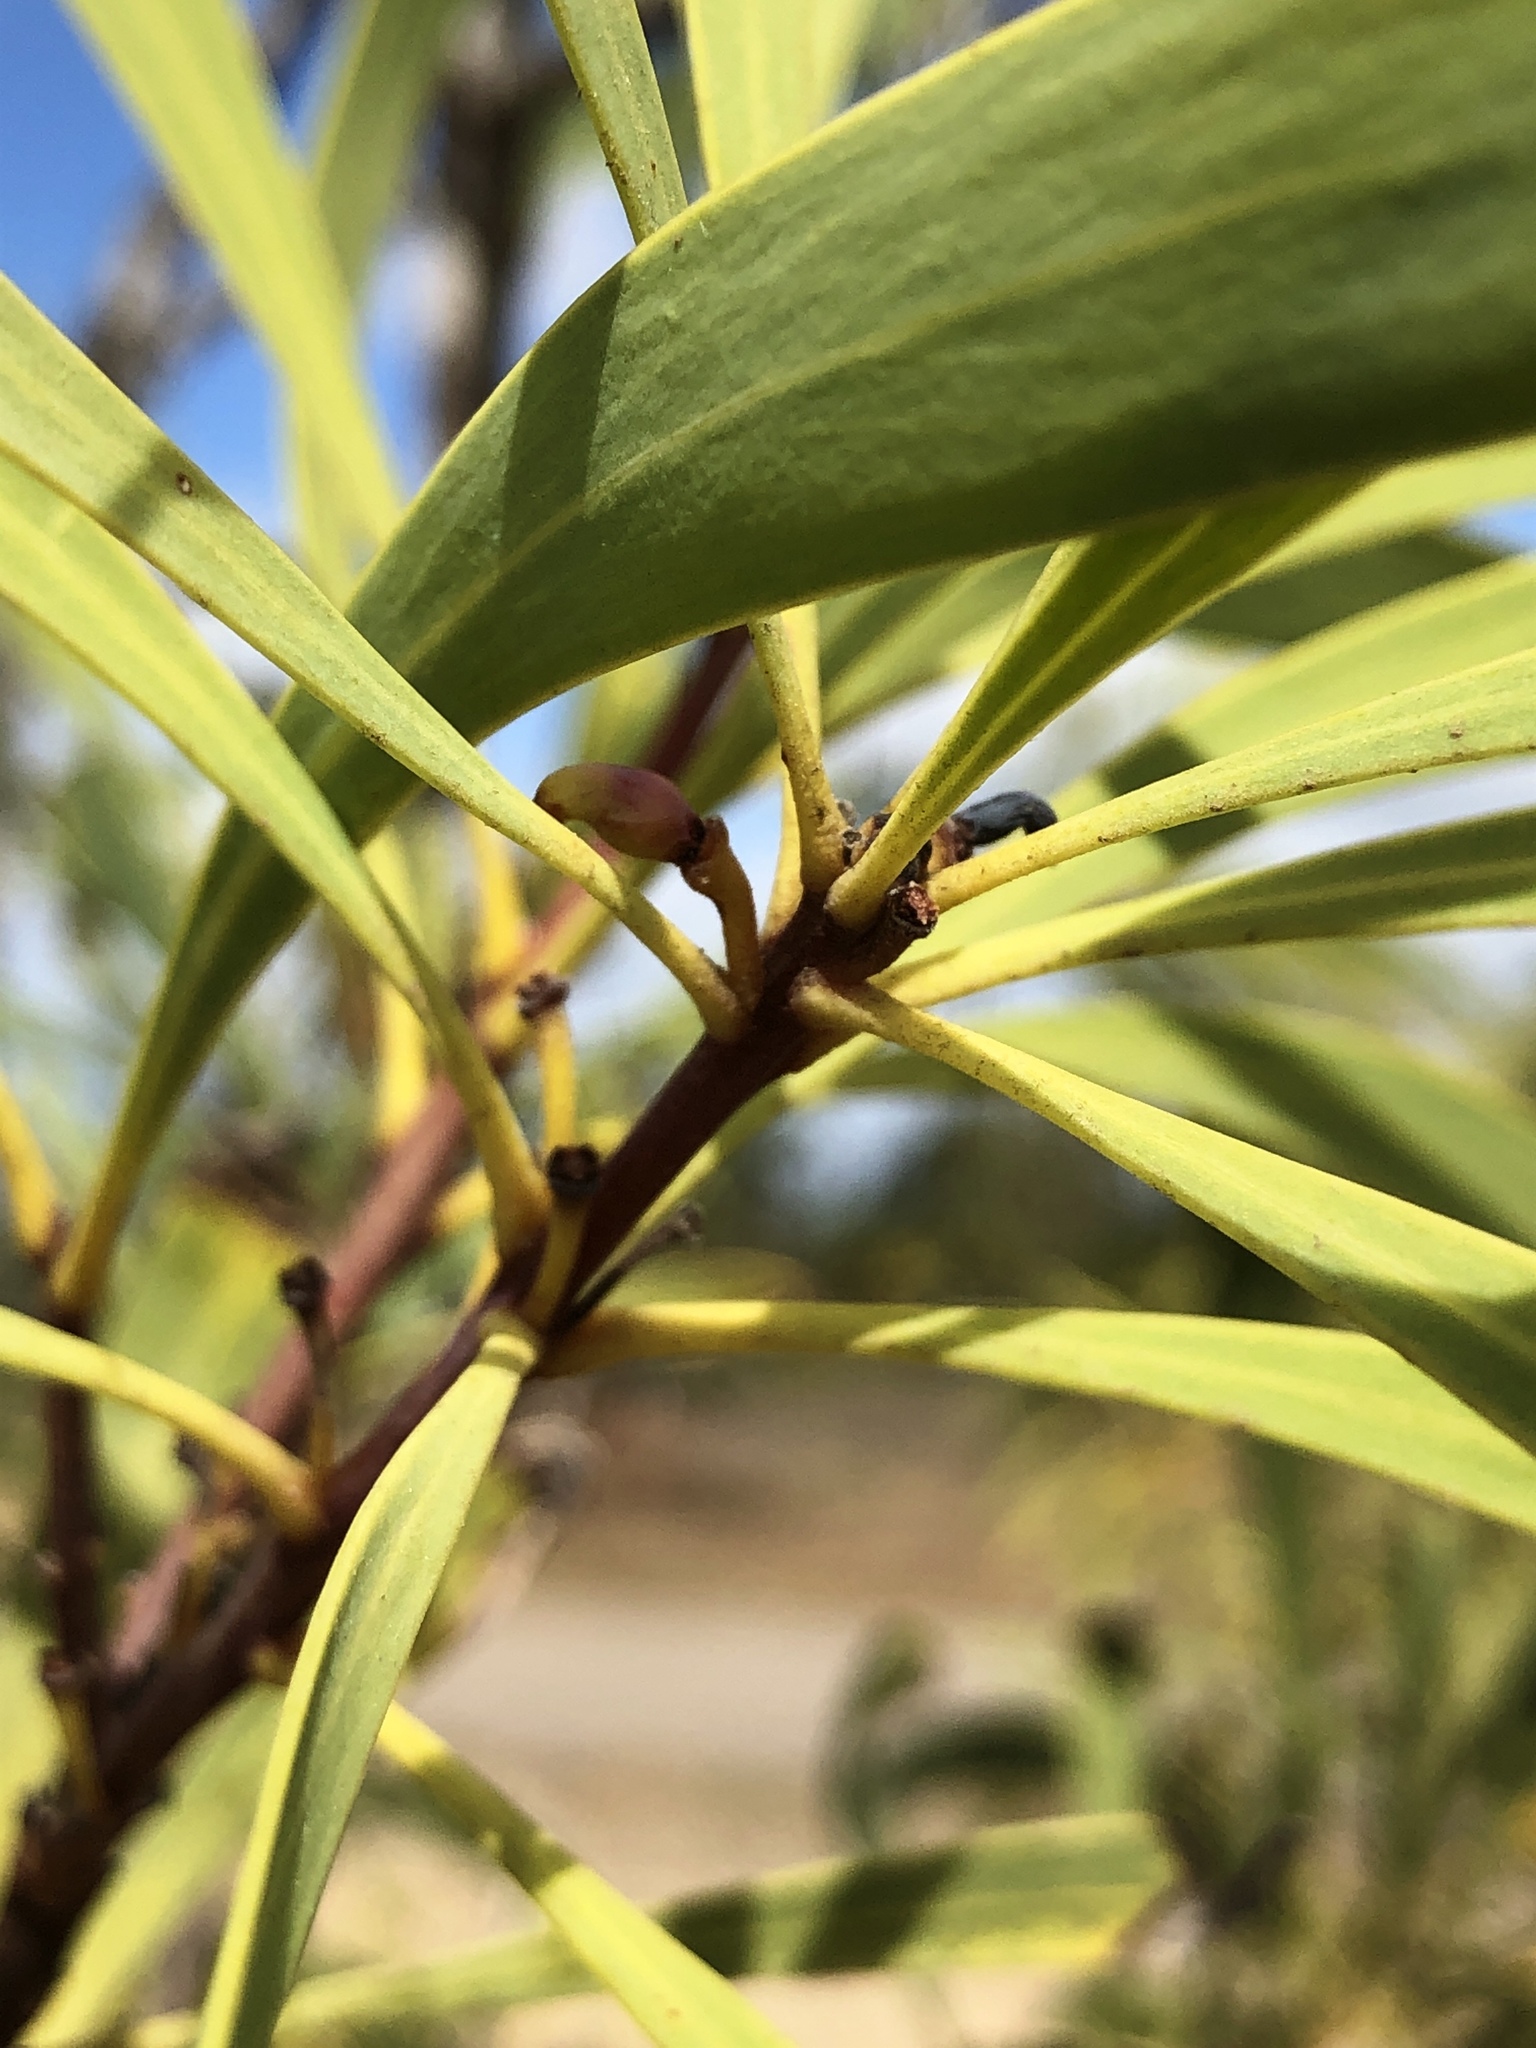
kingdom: Plantae
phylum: Tracheophyta
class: Magnoliopsida
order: Proteales
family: Proteaceae
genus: Persoonia
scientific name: Persoonia falcata
